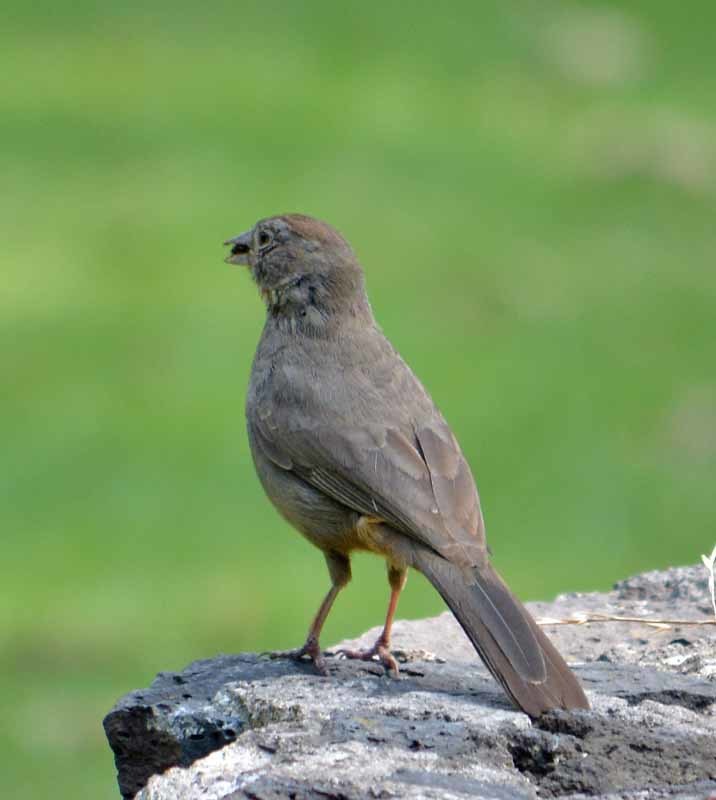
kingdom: Animalia
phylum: Chordata
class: Aves
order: Passeriformes
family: Passerellidae
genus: Melozone
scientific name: Melozone fusca
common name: Canyon towhee
